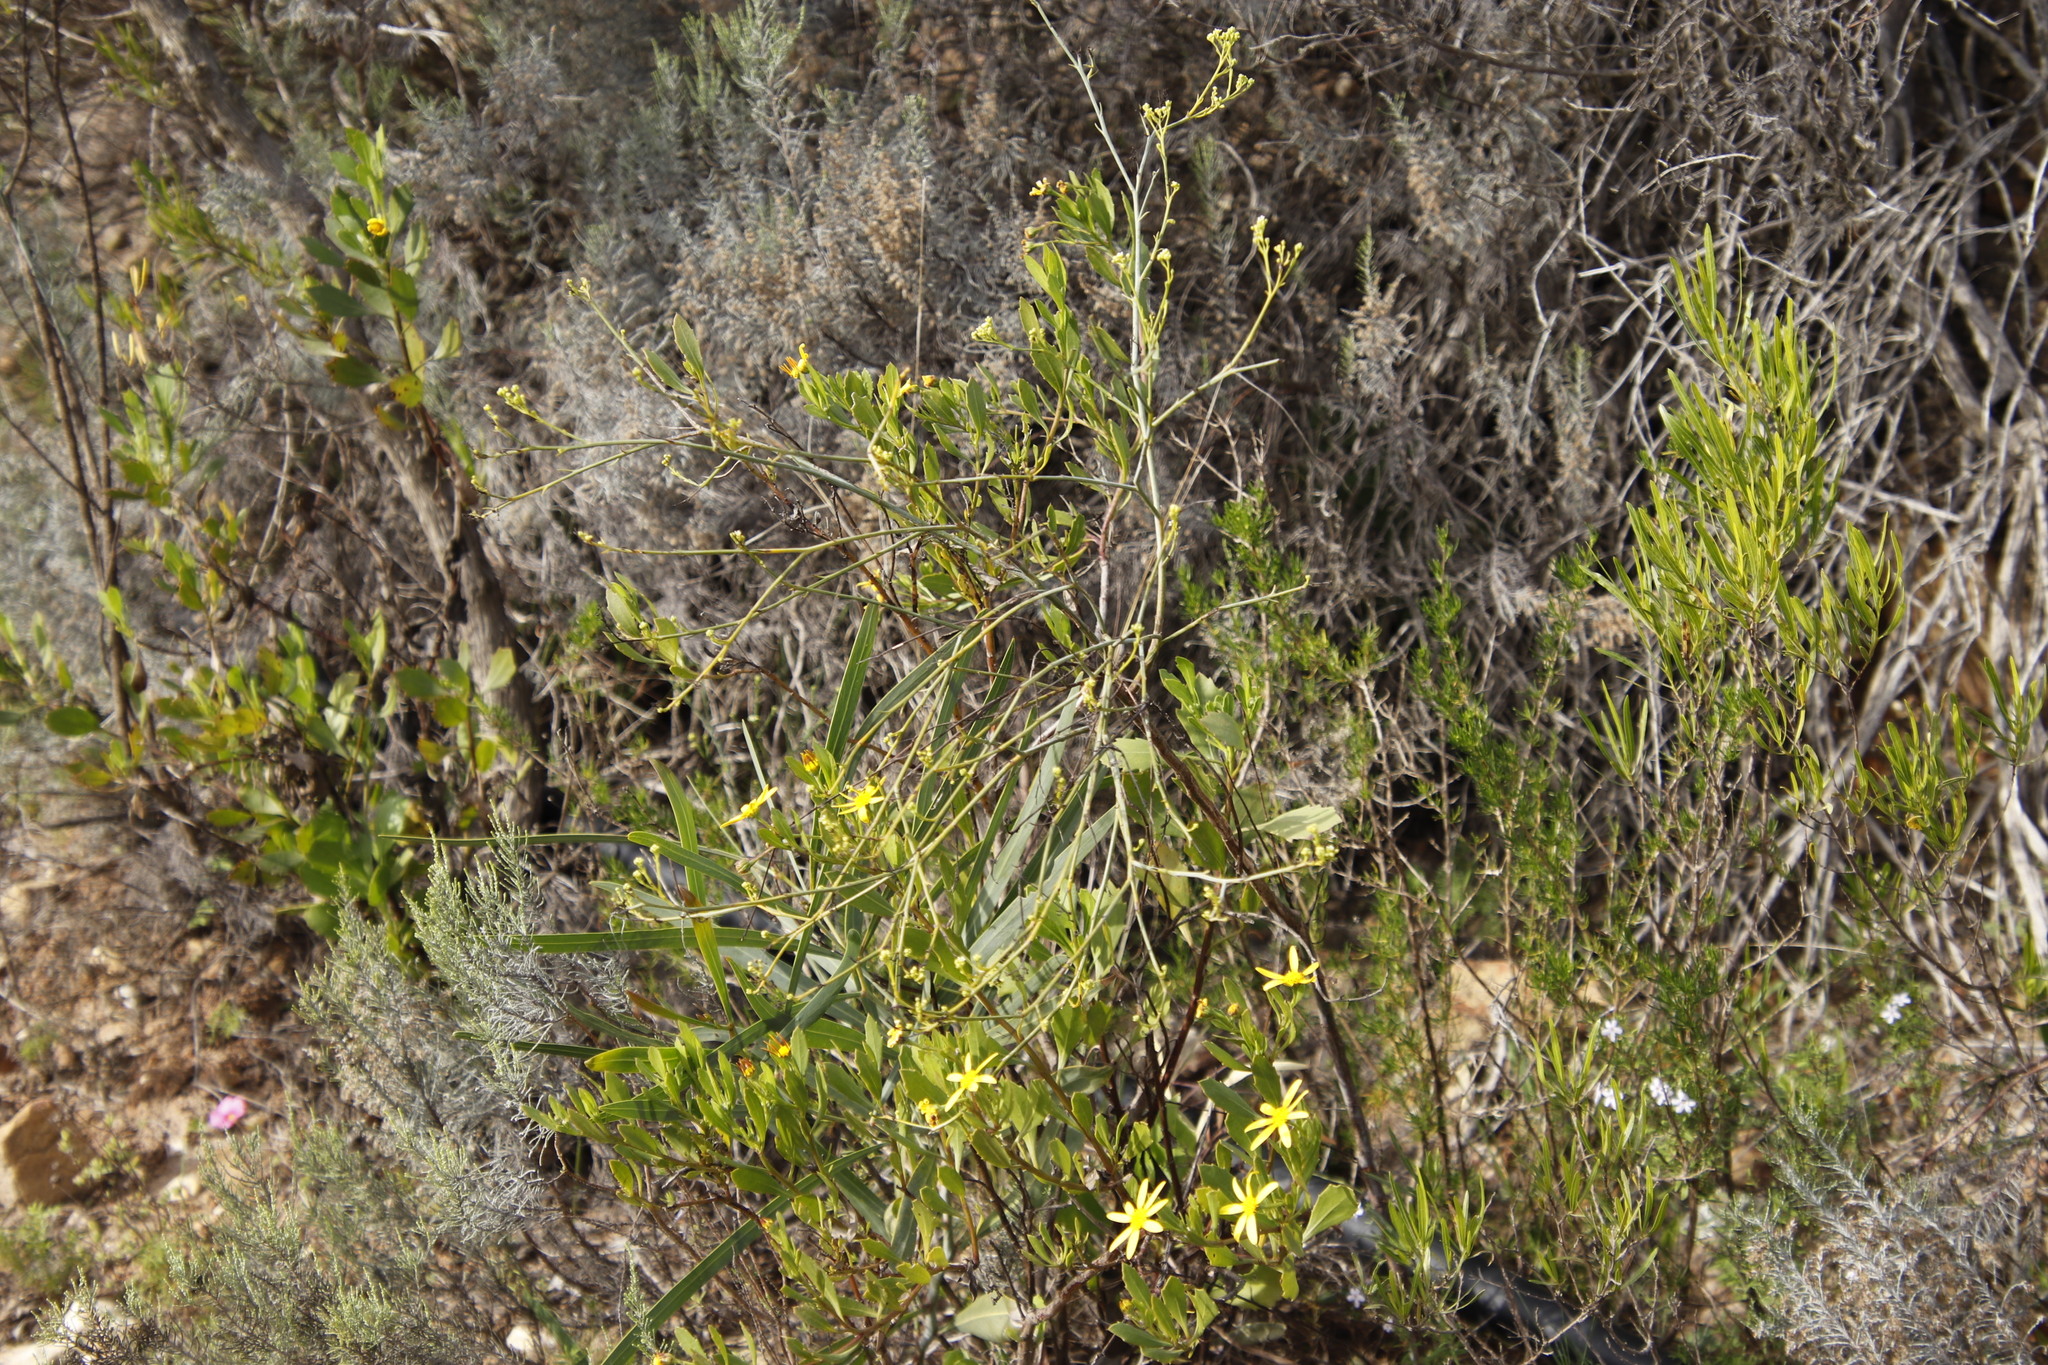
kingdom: Plantae
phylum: Tracheophyta
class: Magnoliopsida
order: Santalales
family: Thesiaceae
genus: Thesium
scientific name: Thesium strictum
